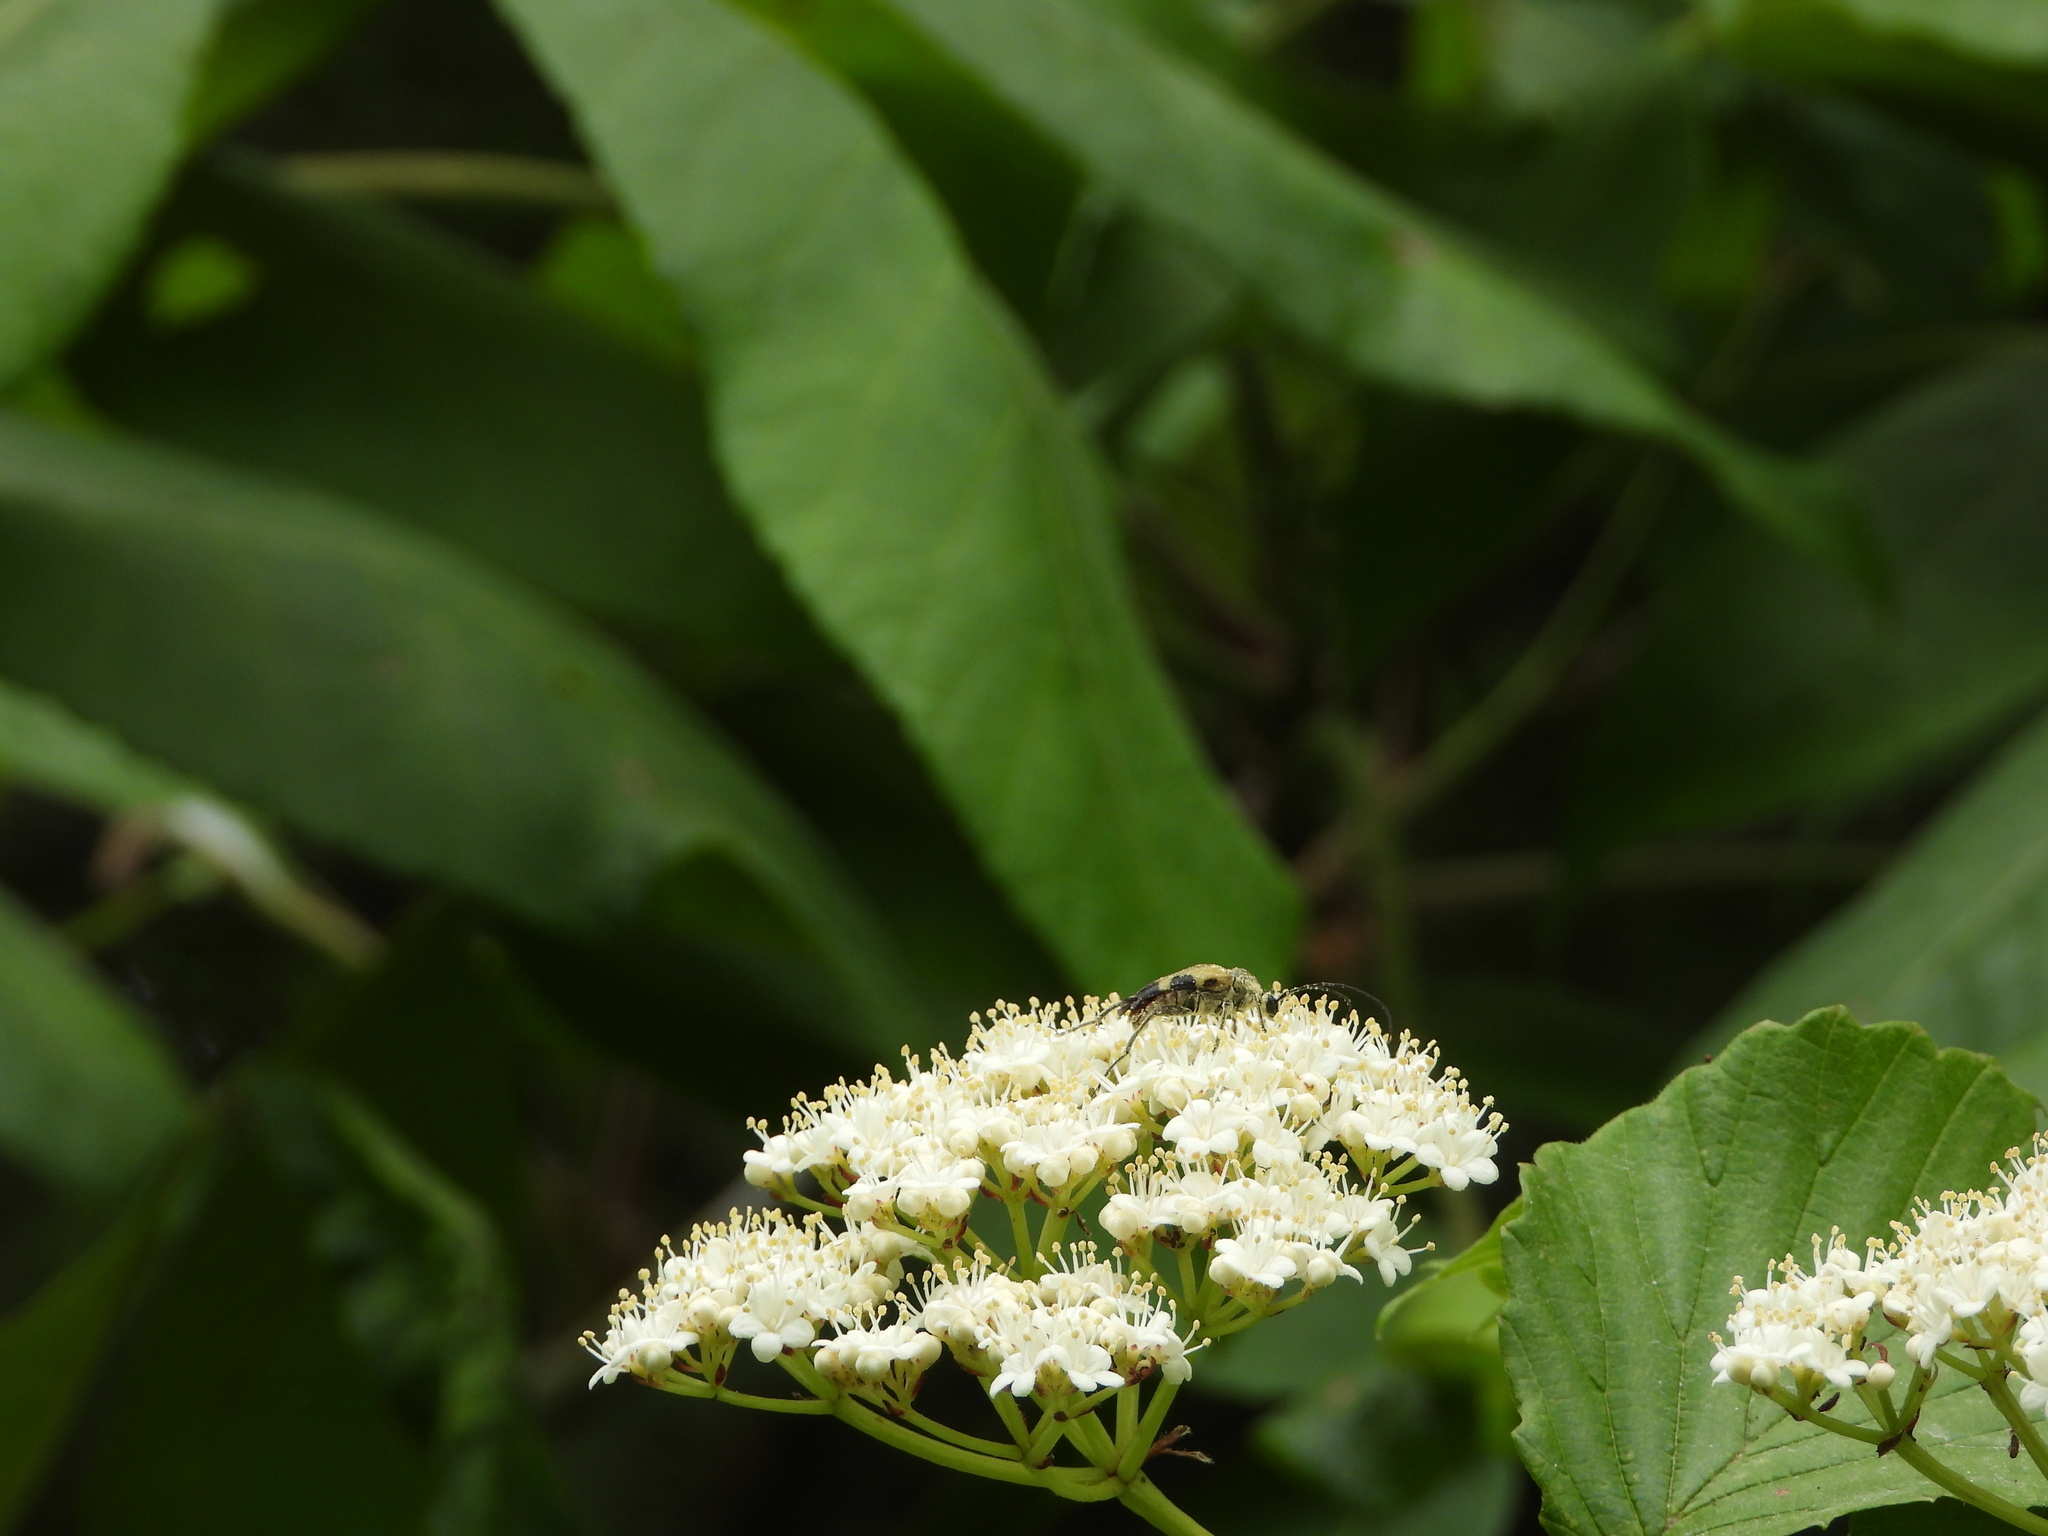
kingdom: Animalia
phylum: Arthropoda
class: Insecta
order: Coleoptera
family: Cerambycidae
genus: Judolia
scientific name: Judolia cordifera
